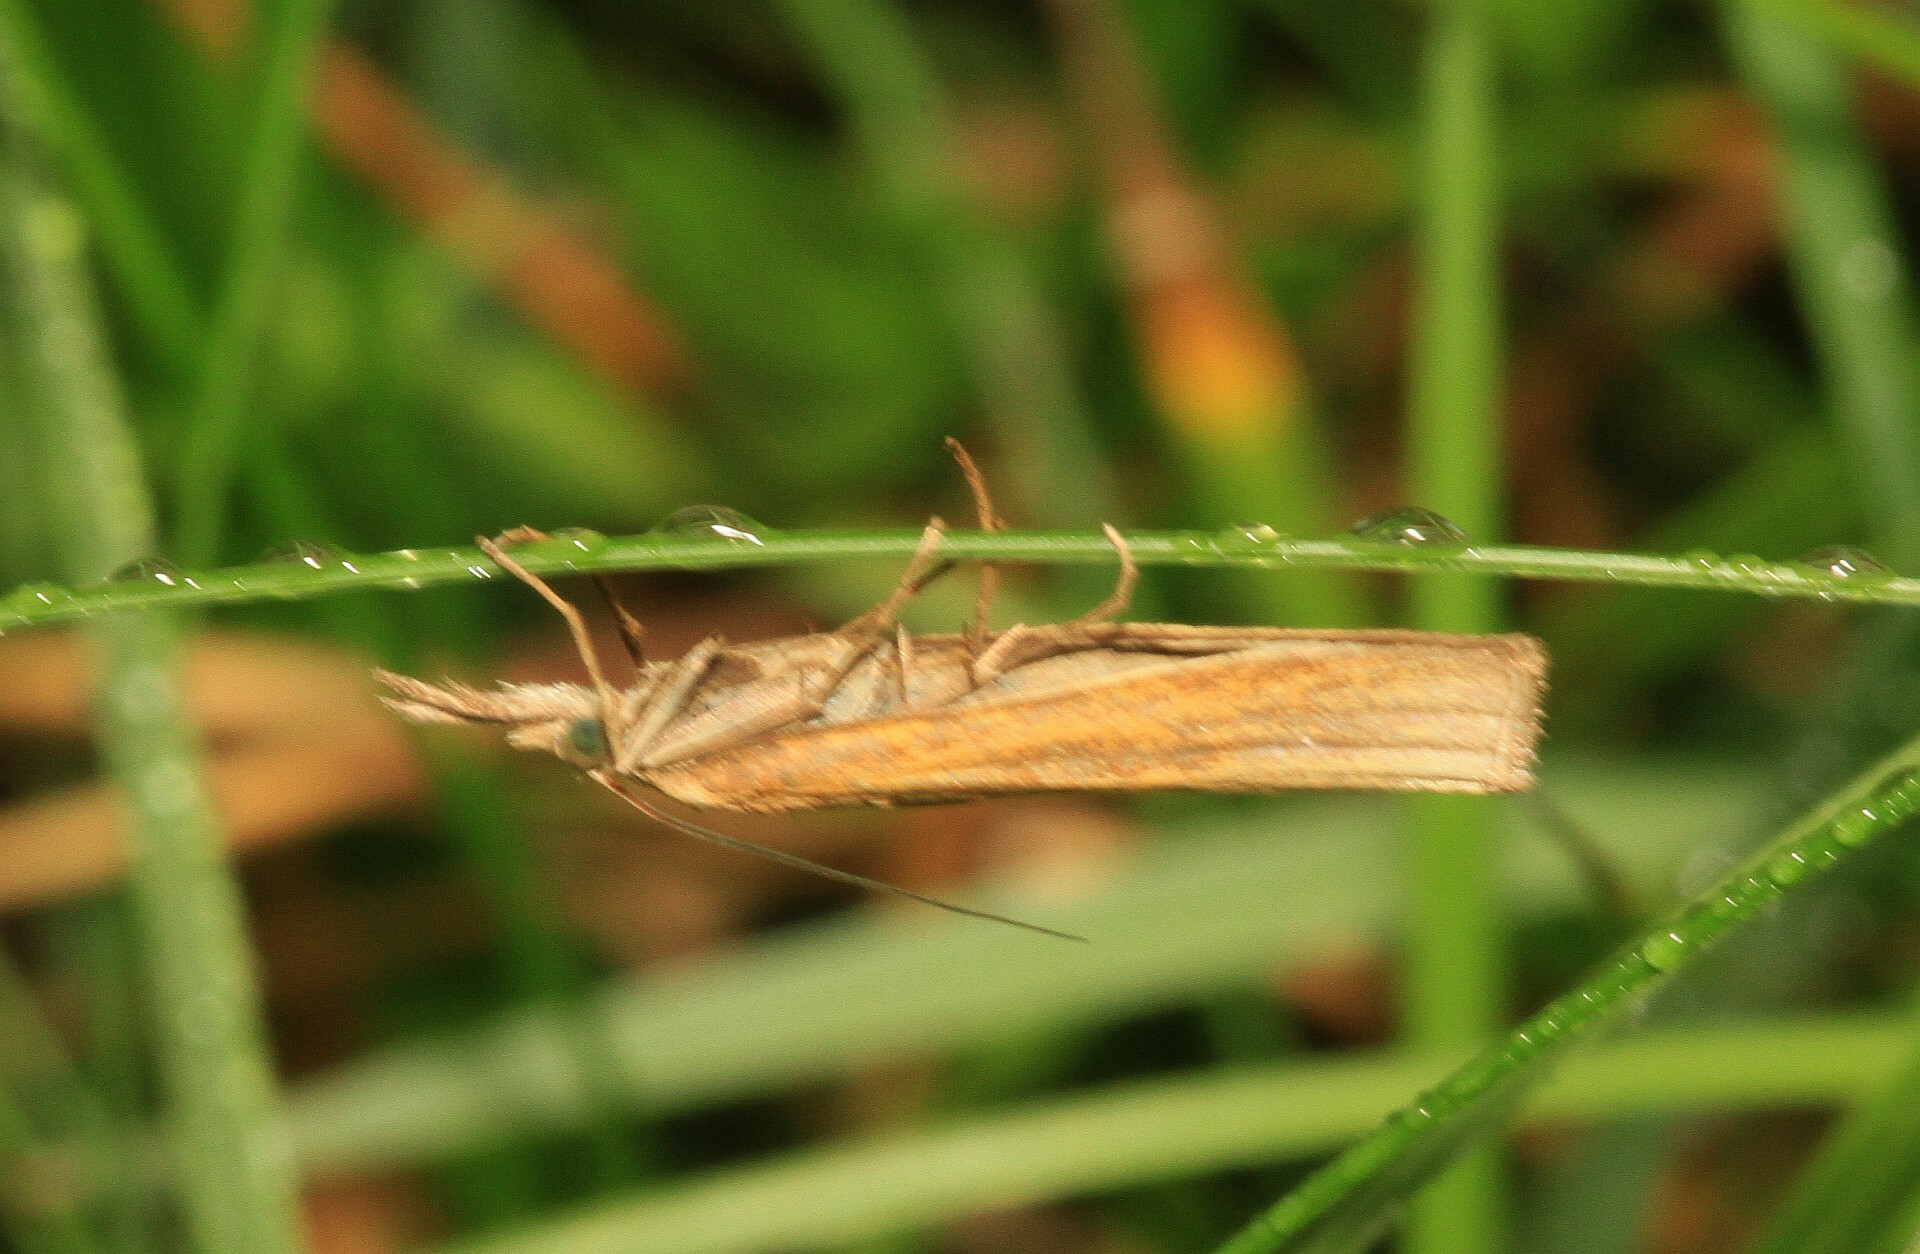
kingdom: Animalia
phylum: Arthropoda
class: Insecta
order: Lepidoptera
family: Crambidae
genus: Agriphila
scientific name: Agriphila tristellus
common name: Common grass-veneer
